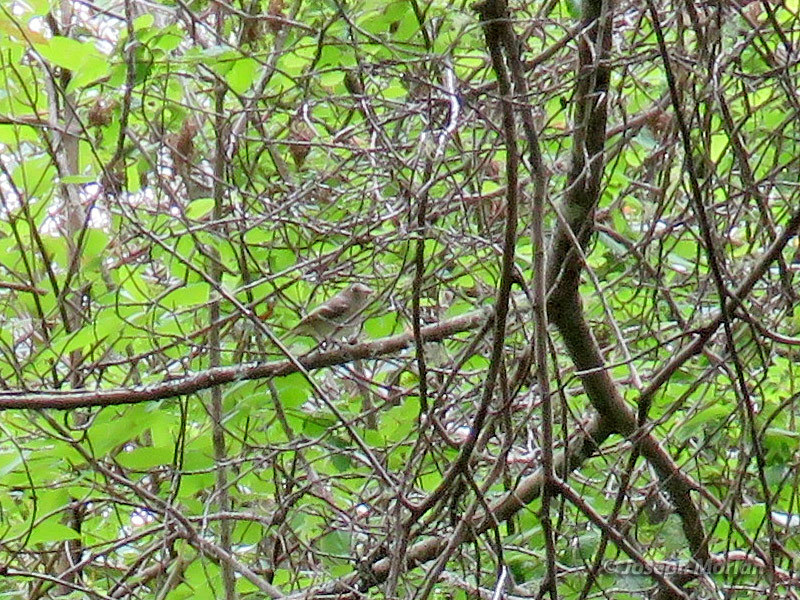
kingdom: Animalia
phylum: Chordata
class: Aves
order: Passeriformes
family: Vireonidae
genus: Vireo
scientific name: Vireo huttoni
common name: Hutton's vireo
